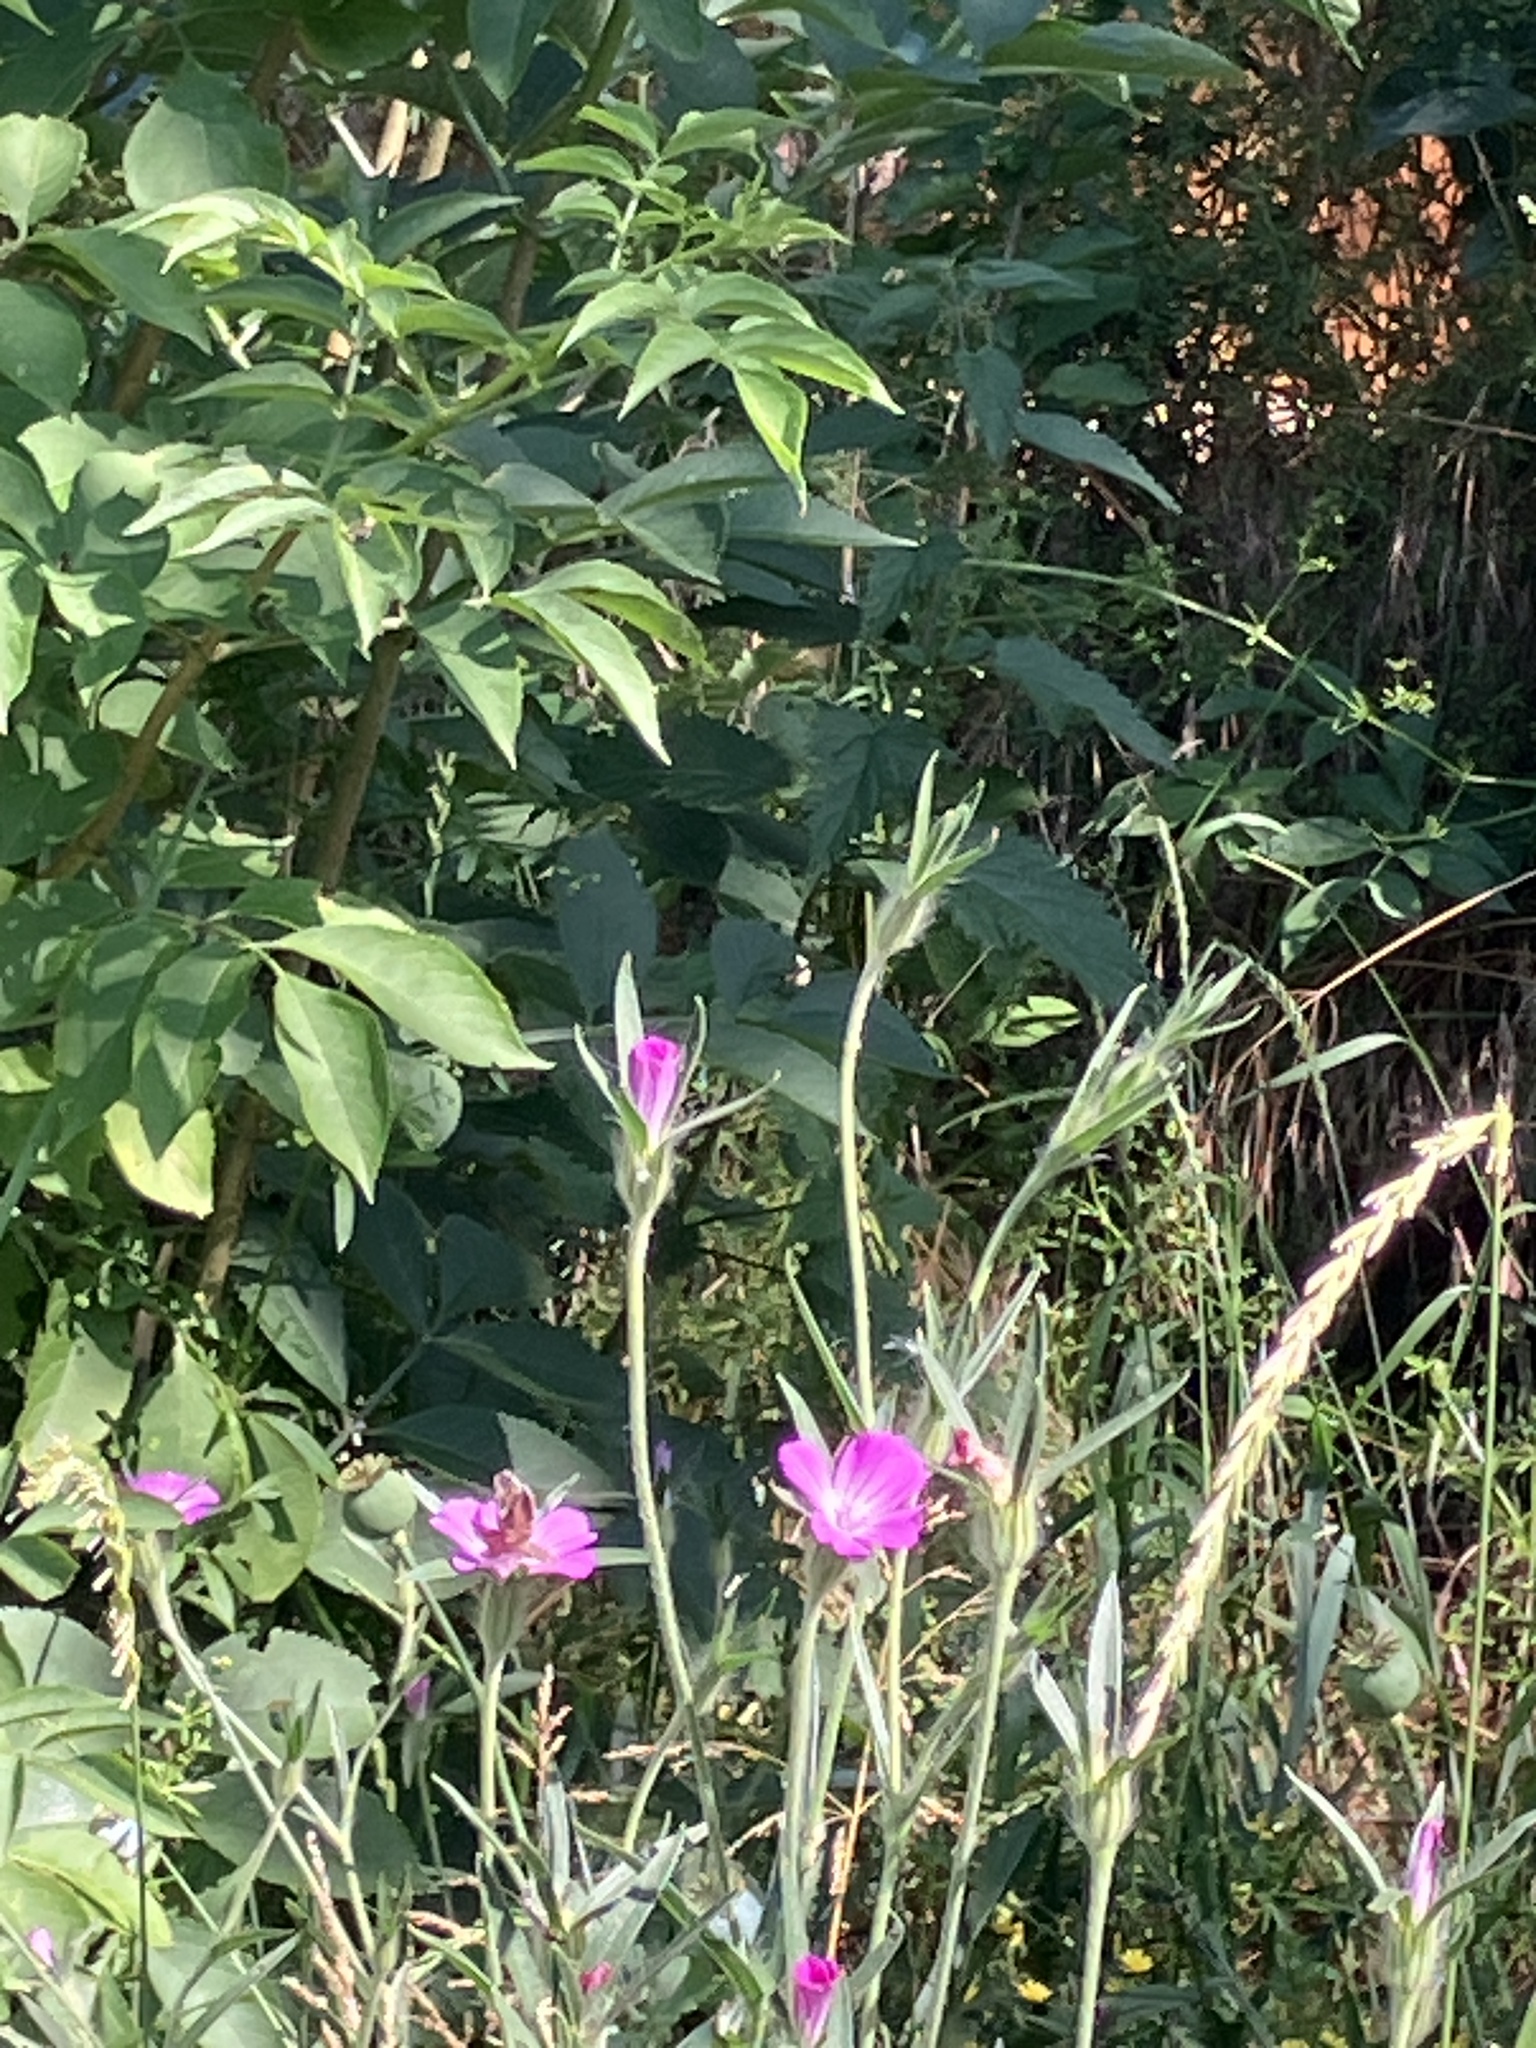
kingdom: Plantae
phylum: Tracheophyta
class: Magnoliopsida
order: Caryophyllales
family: Caryophyllaceae
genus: Agrostemma
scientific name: Agrostemma githago
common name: Common corncockle
